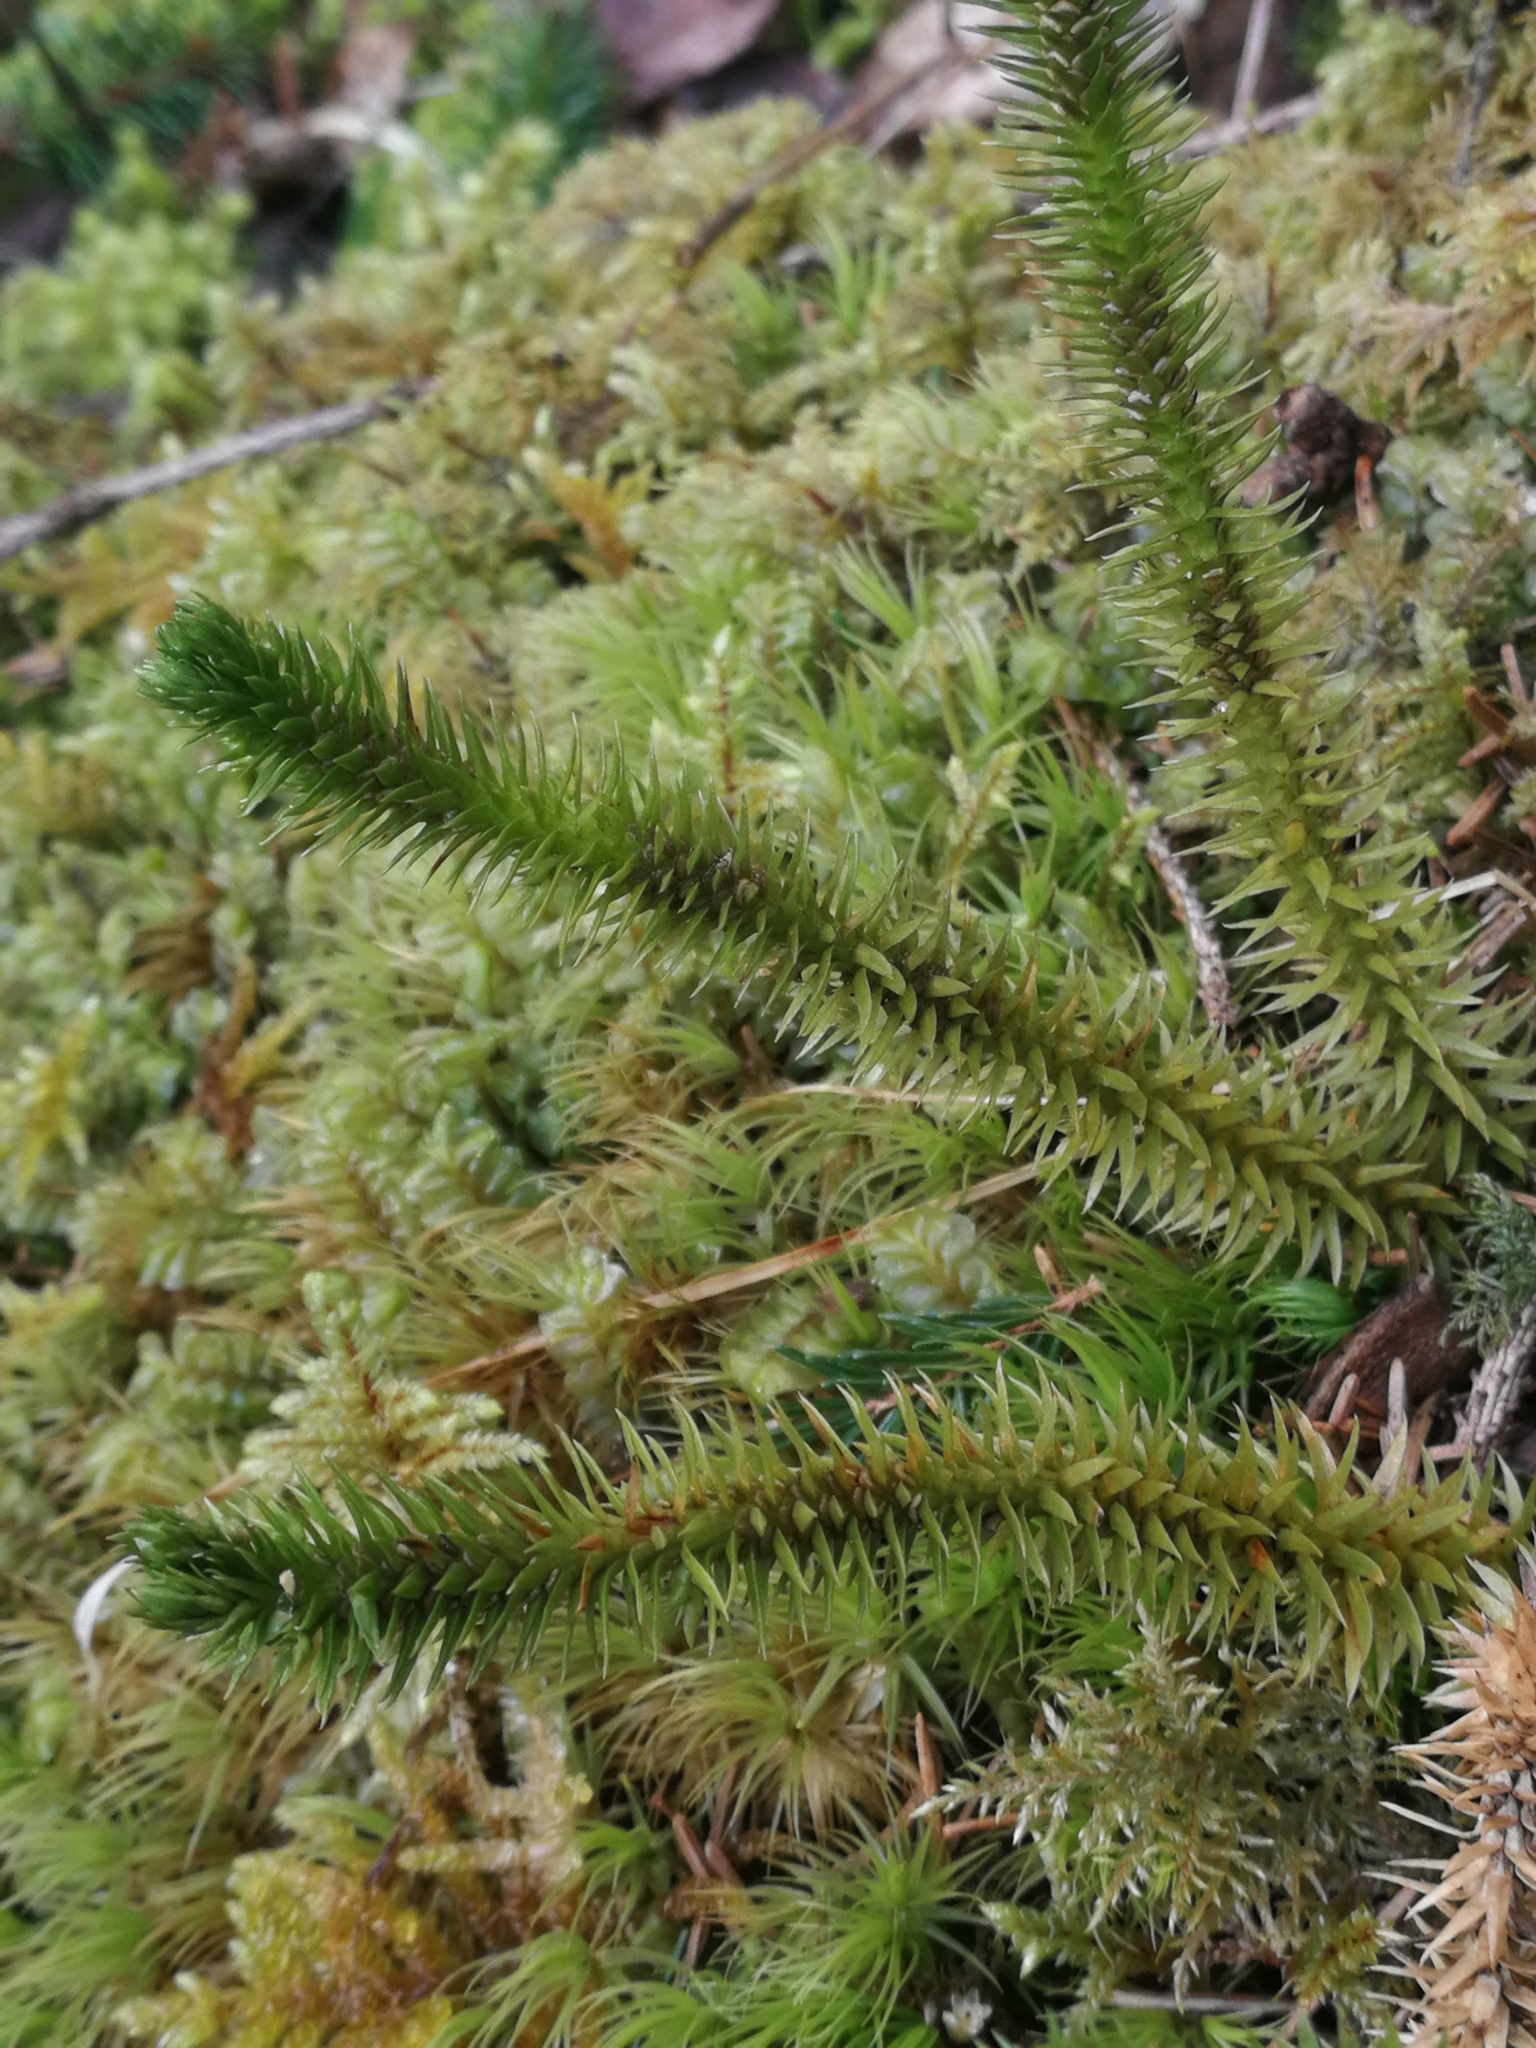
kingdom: Plantae
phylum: Tracheophyta
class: Lycopodiopsida
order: Lycopodiales
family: Lycopodiaceae
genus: Huperzia
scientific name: Huperzia selago
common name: Northern firmoss
